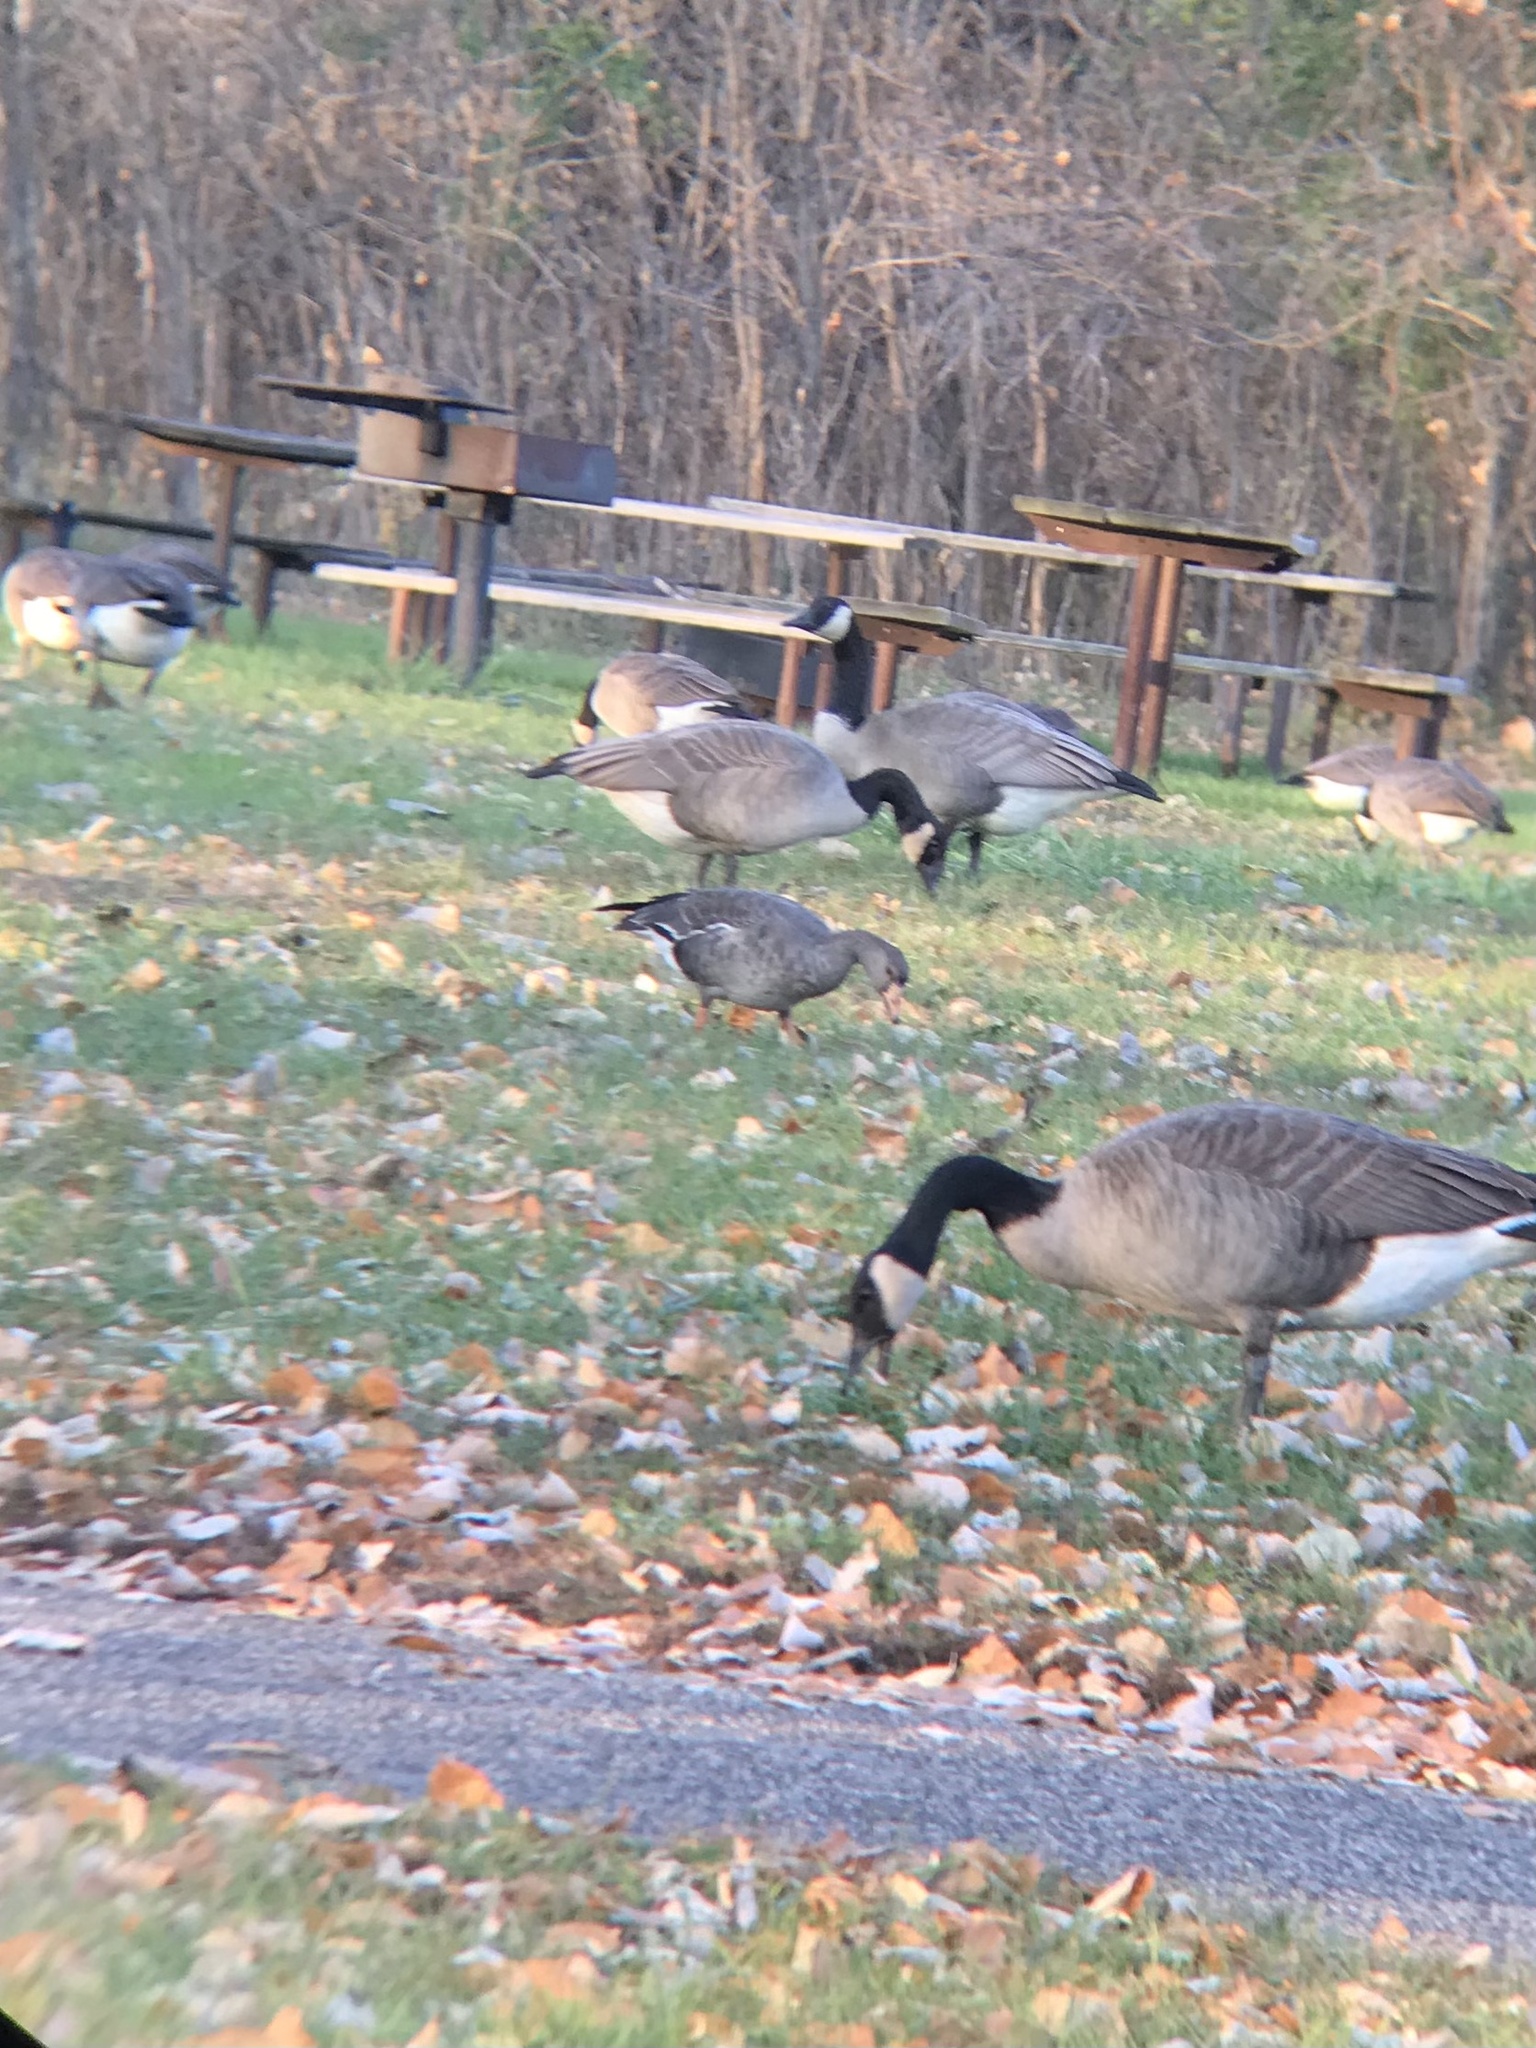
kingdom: Animalia
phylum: Chordata
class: Aves
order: Anseriformes
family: Anatidae
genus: Anser
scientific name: Anser albifrons
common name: Greater white-fronted goose
